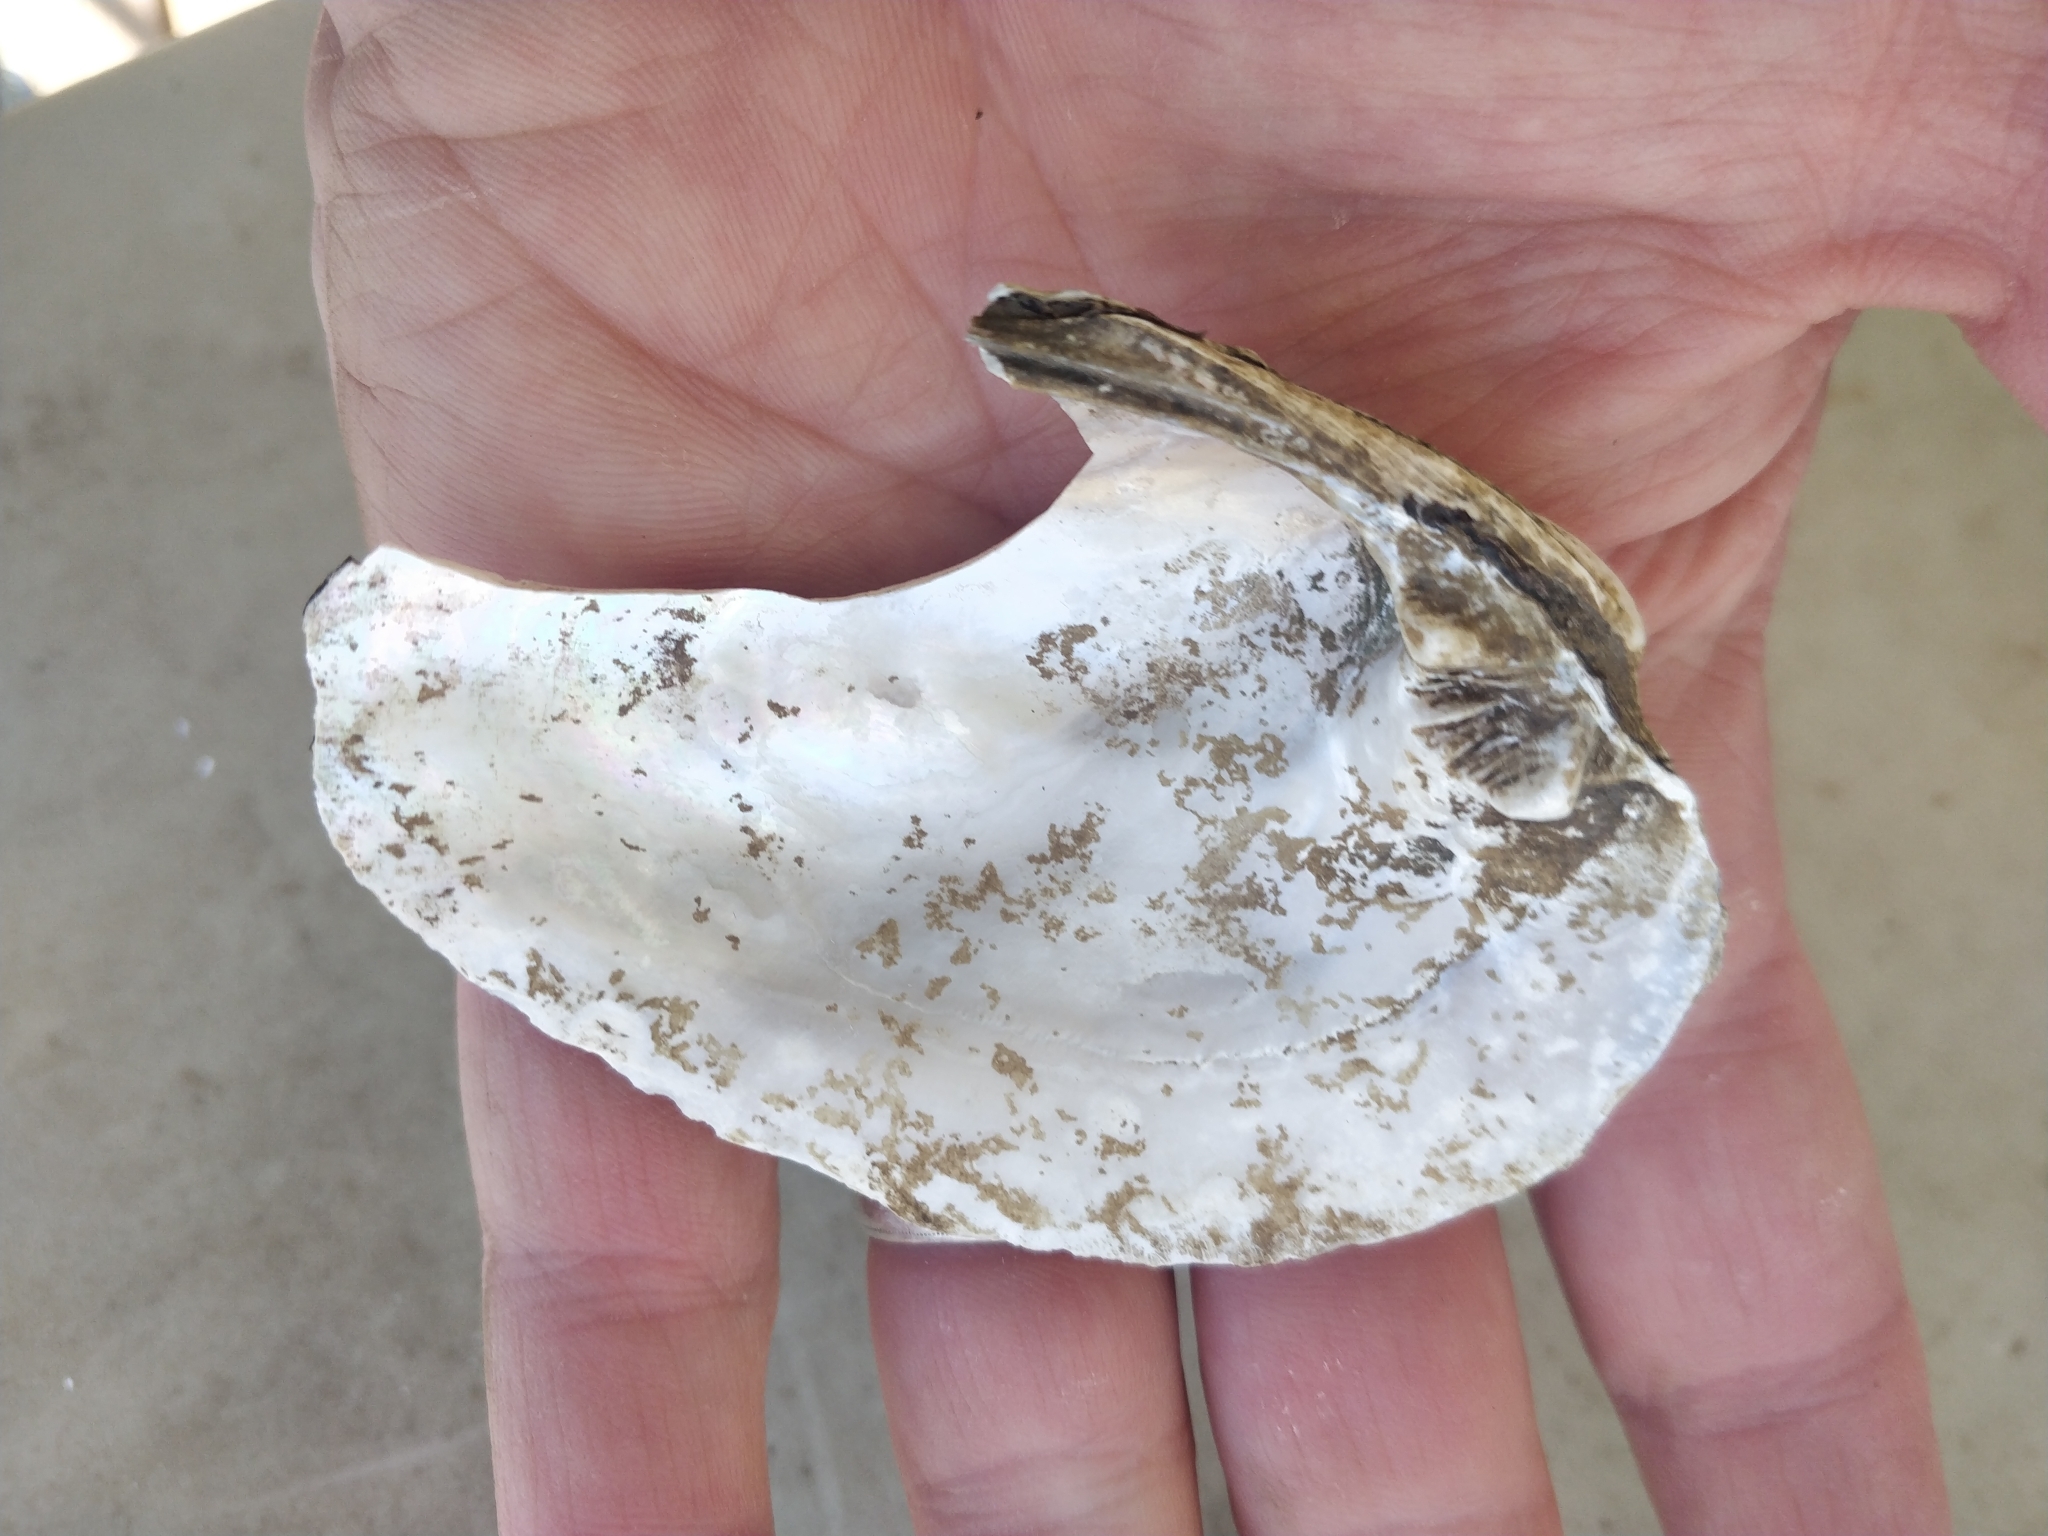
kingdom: Animalia
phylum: Mollusca
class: Bivalvia
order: Unionida
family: Unionidae
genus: Amblema
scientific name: Amblema plicata
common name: Threeridge
